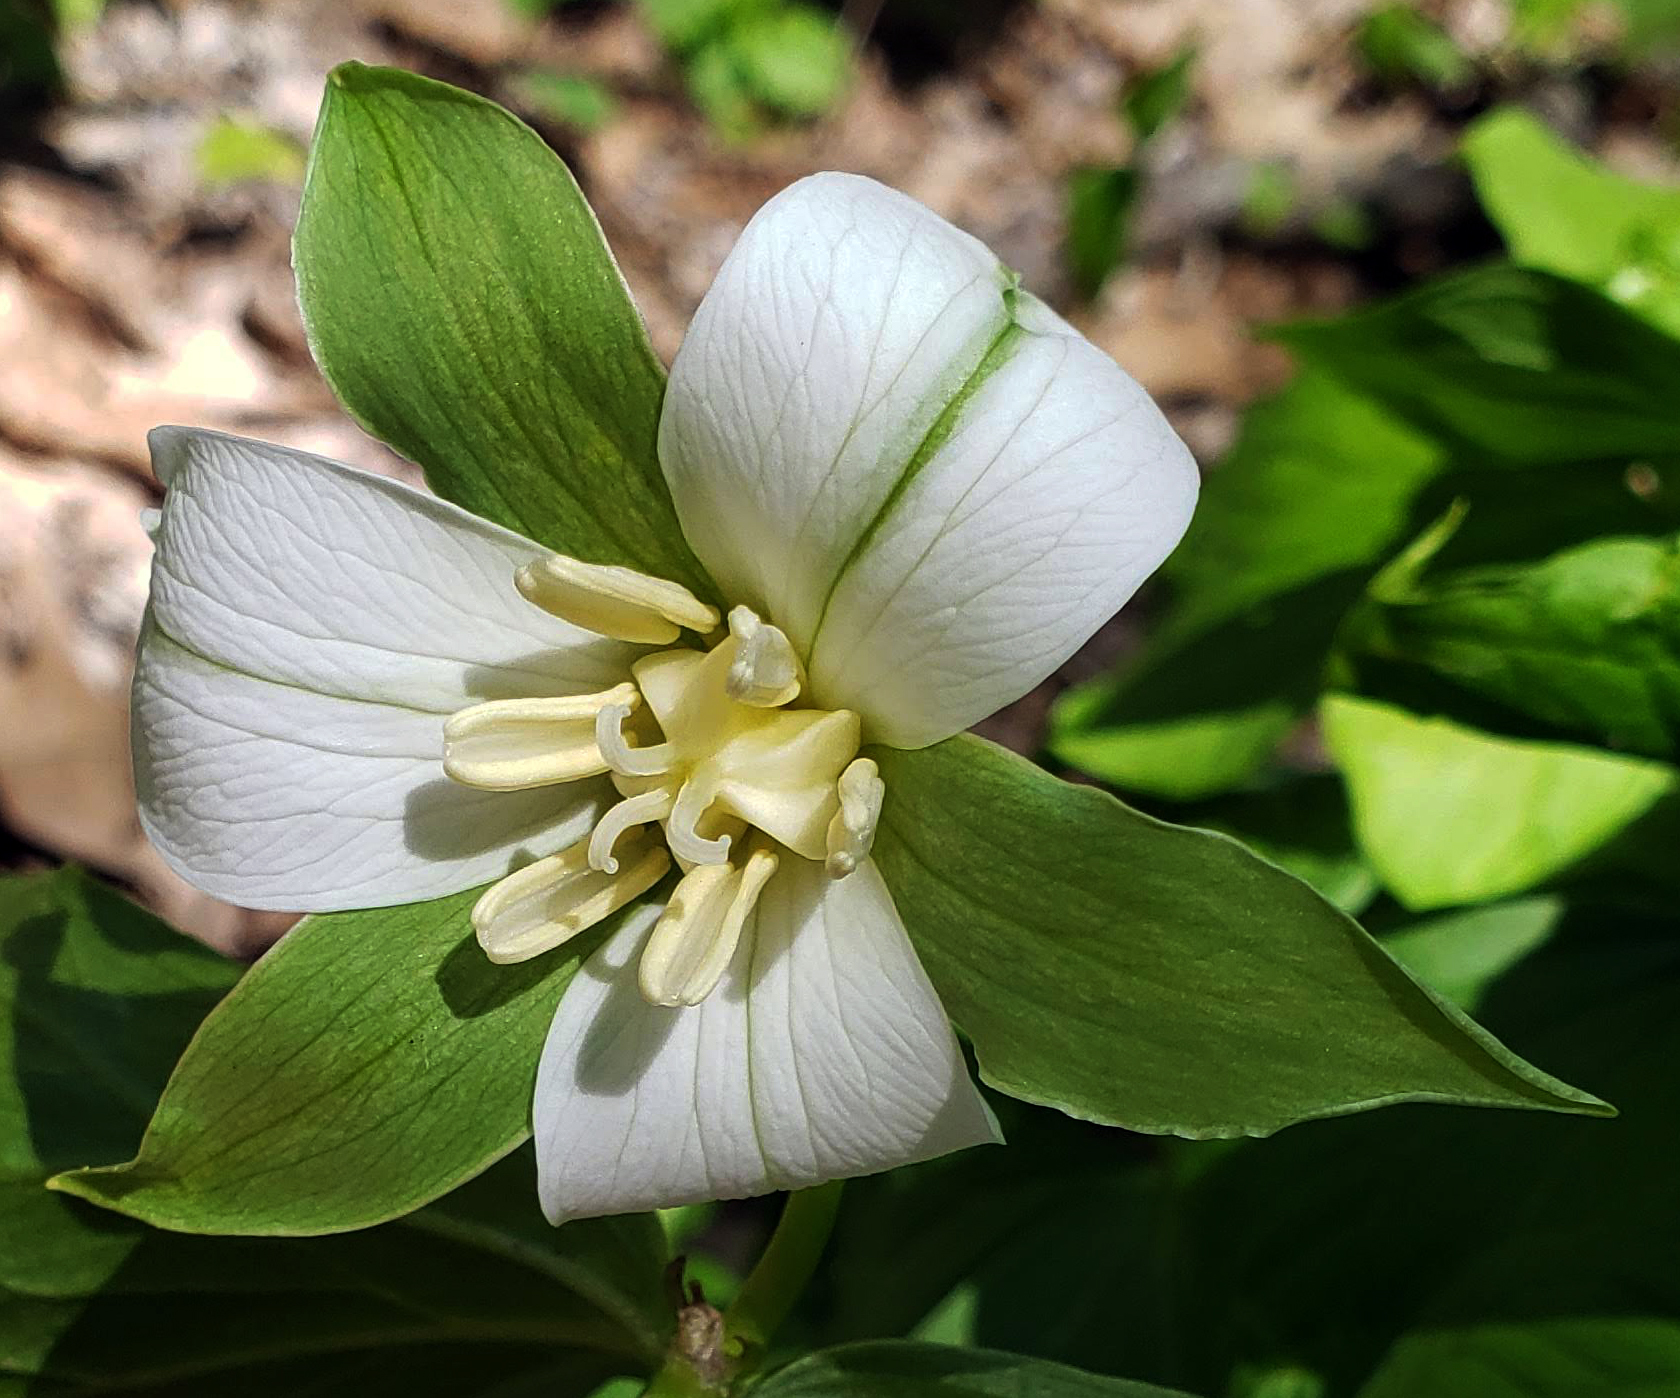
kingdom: Plantae
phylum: Tracheophyta
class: Liliopsida
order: Liliales
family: Melanthiaceae
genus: Trillium
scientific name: Trillium flexipes
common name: Drooping trillium
